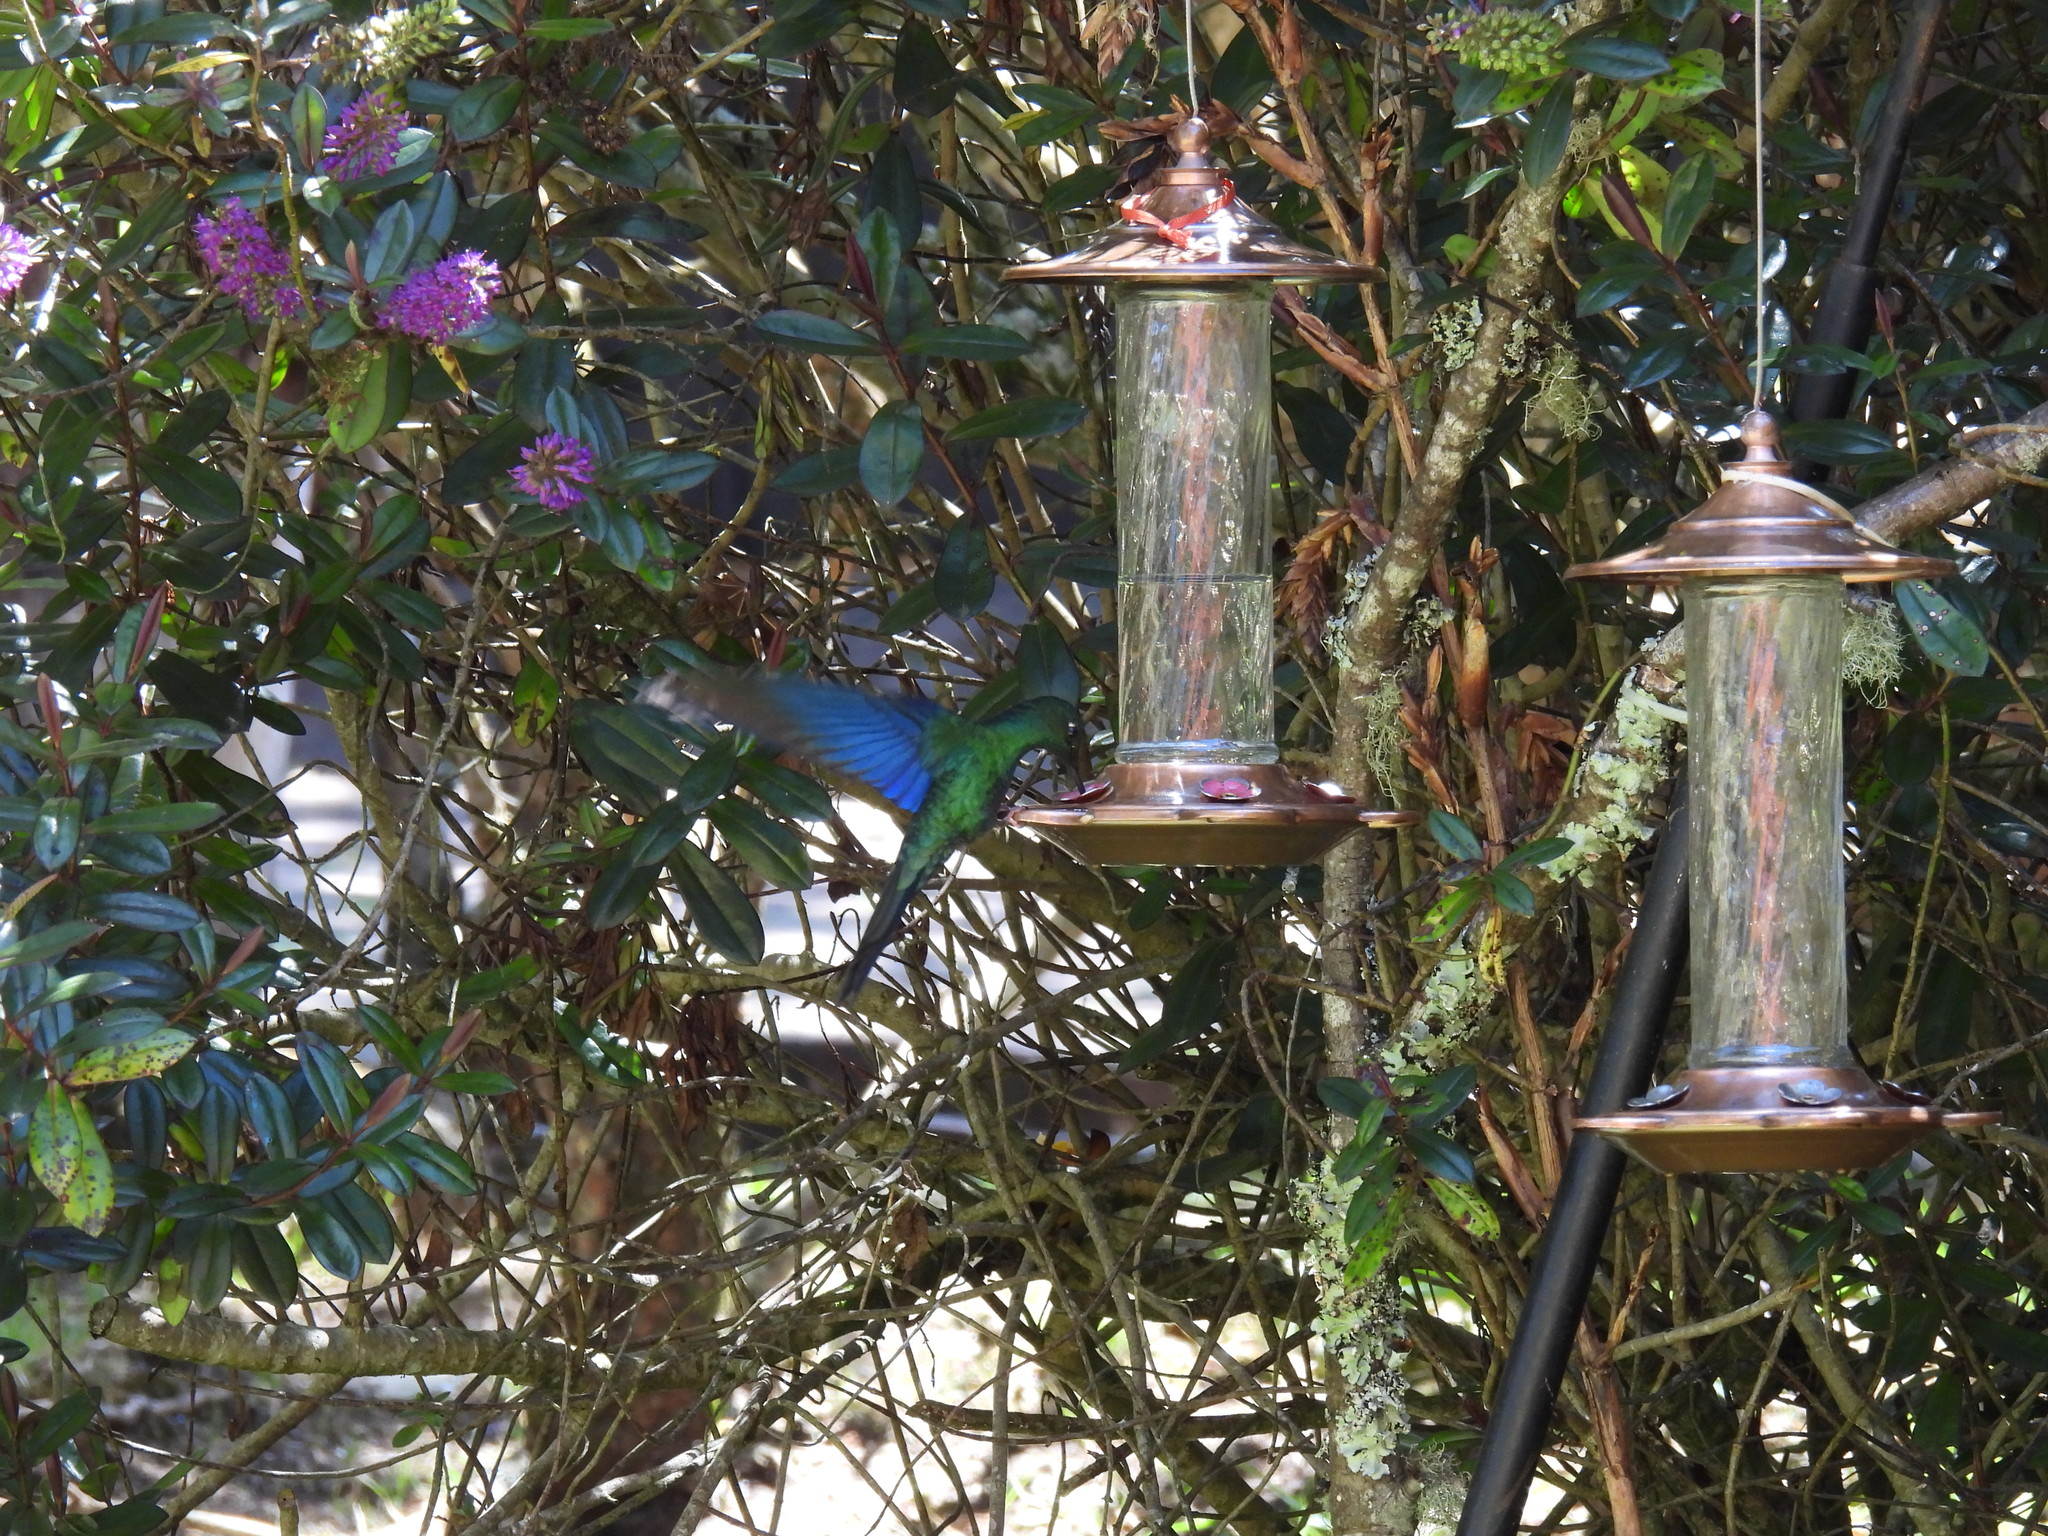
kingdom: Animalia
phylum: Chordata
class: Aves
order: Apodiformes
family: Trochilidae
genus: Pterophanes
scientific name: Pterophanes cyanopterus
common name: Great sapphirewing
